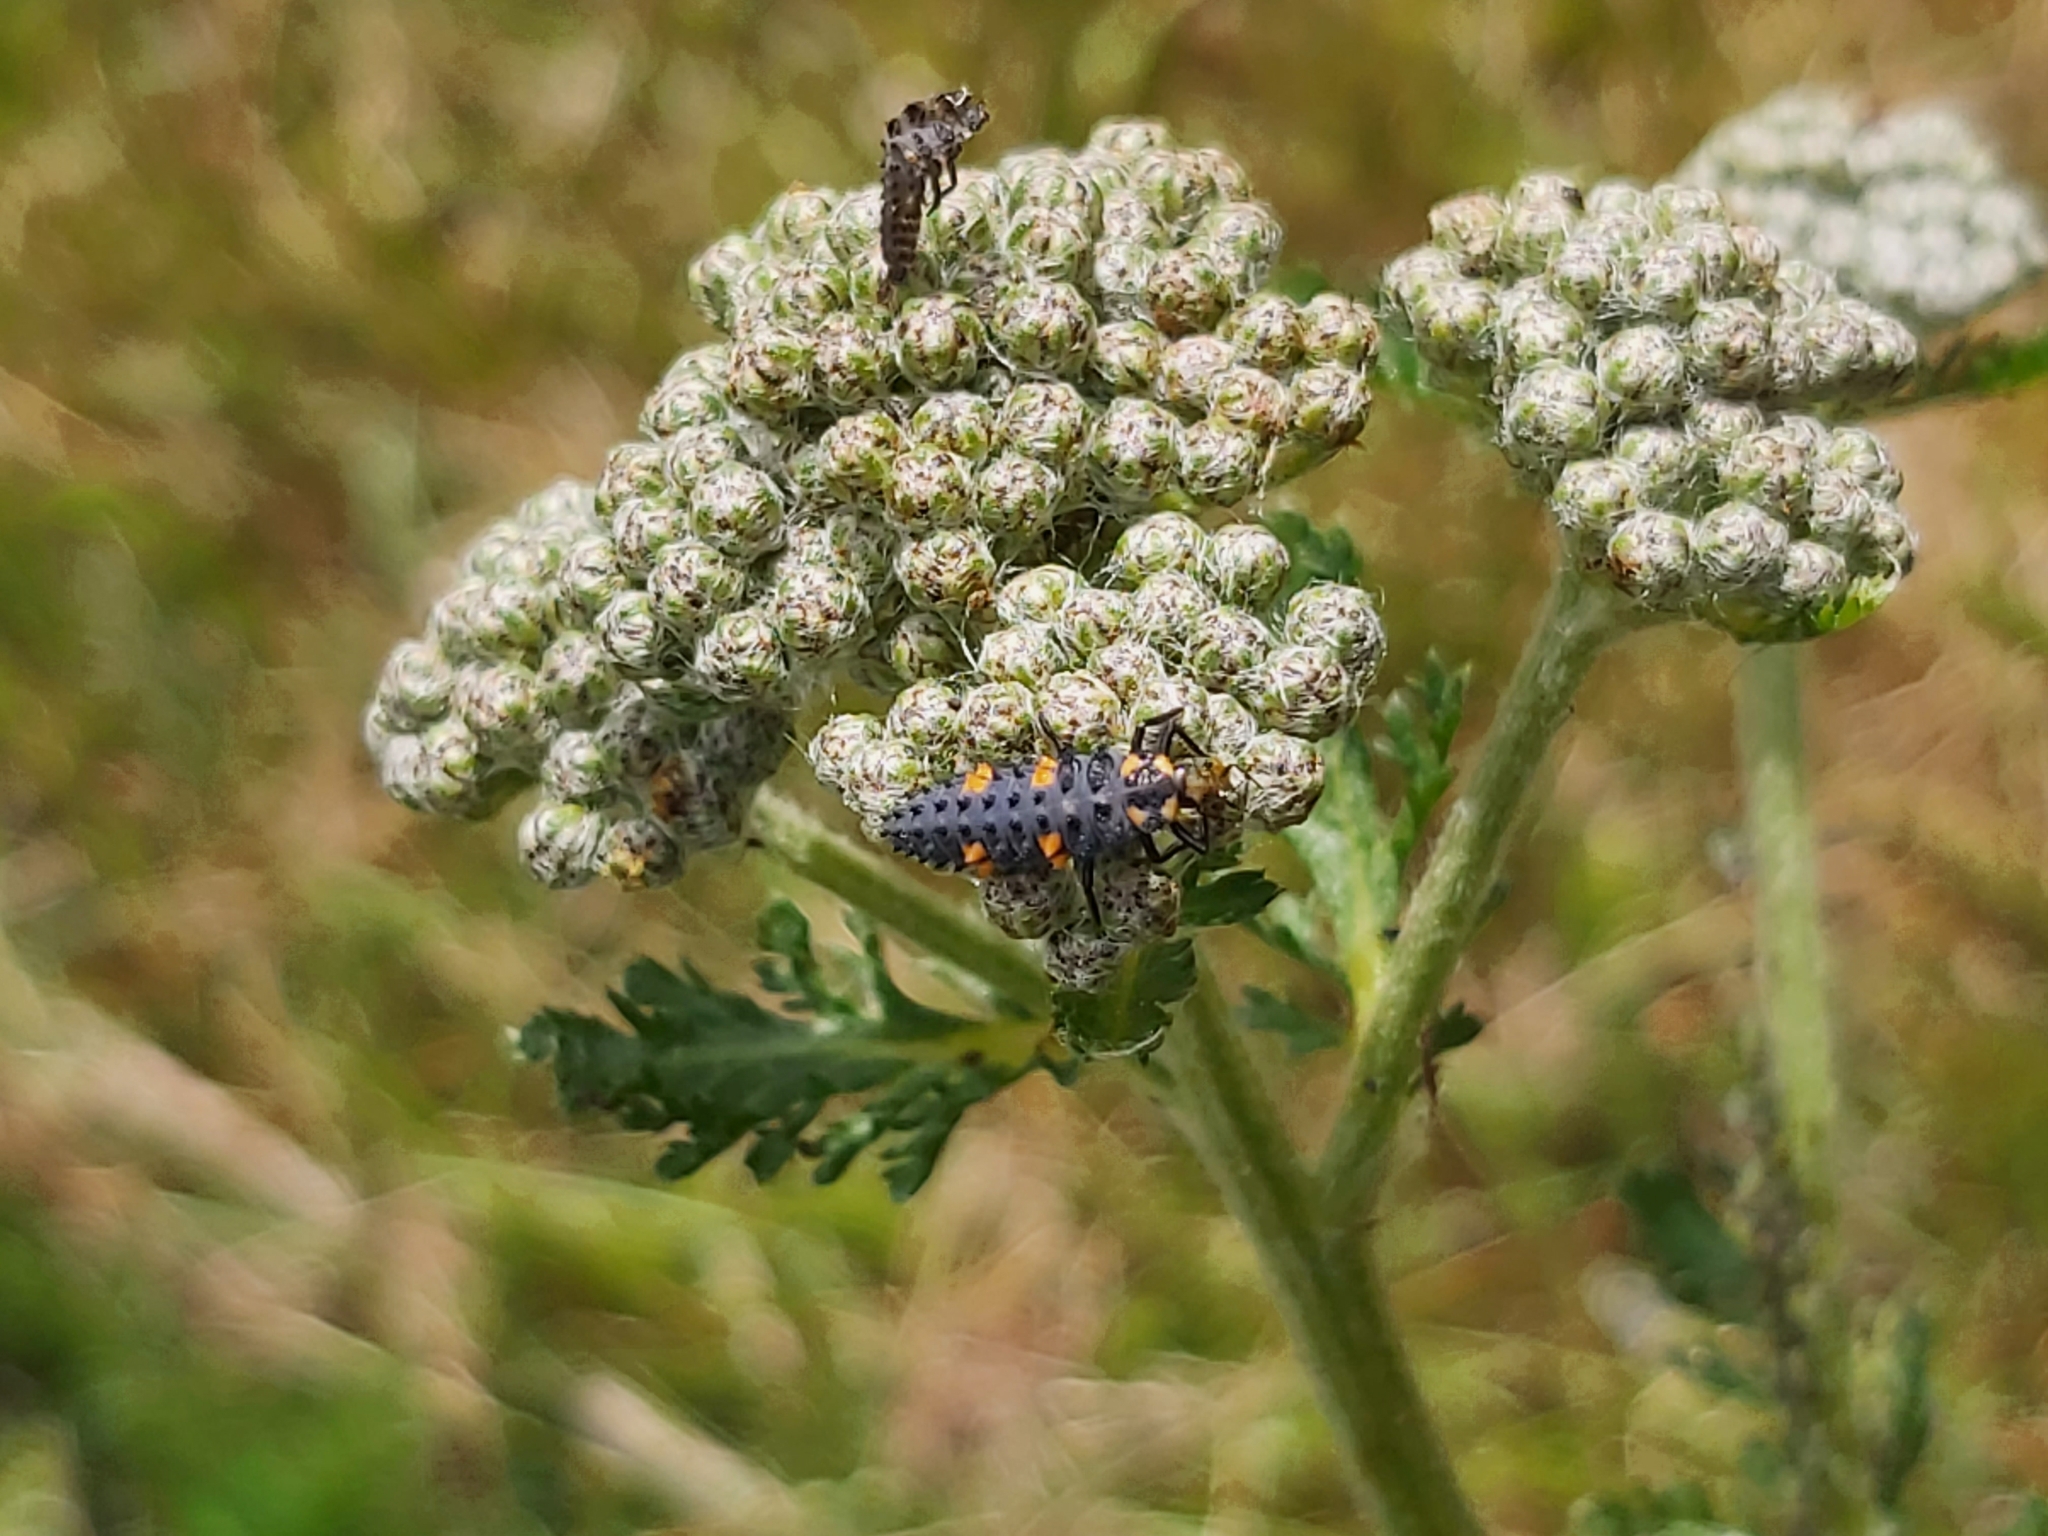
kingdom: Animalia
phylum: Arthropoda
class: Insecta
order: Coleoptera
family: Coccinellidae
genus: Coccinella
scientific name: Coccinella septempunctata
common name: Sevenspotted lady beetle
